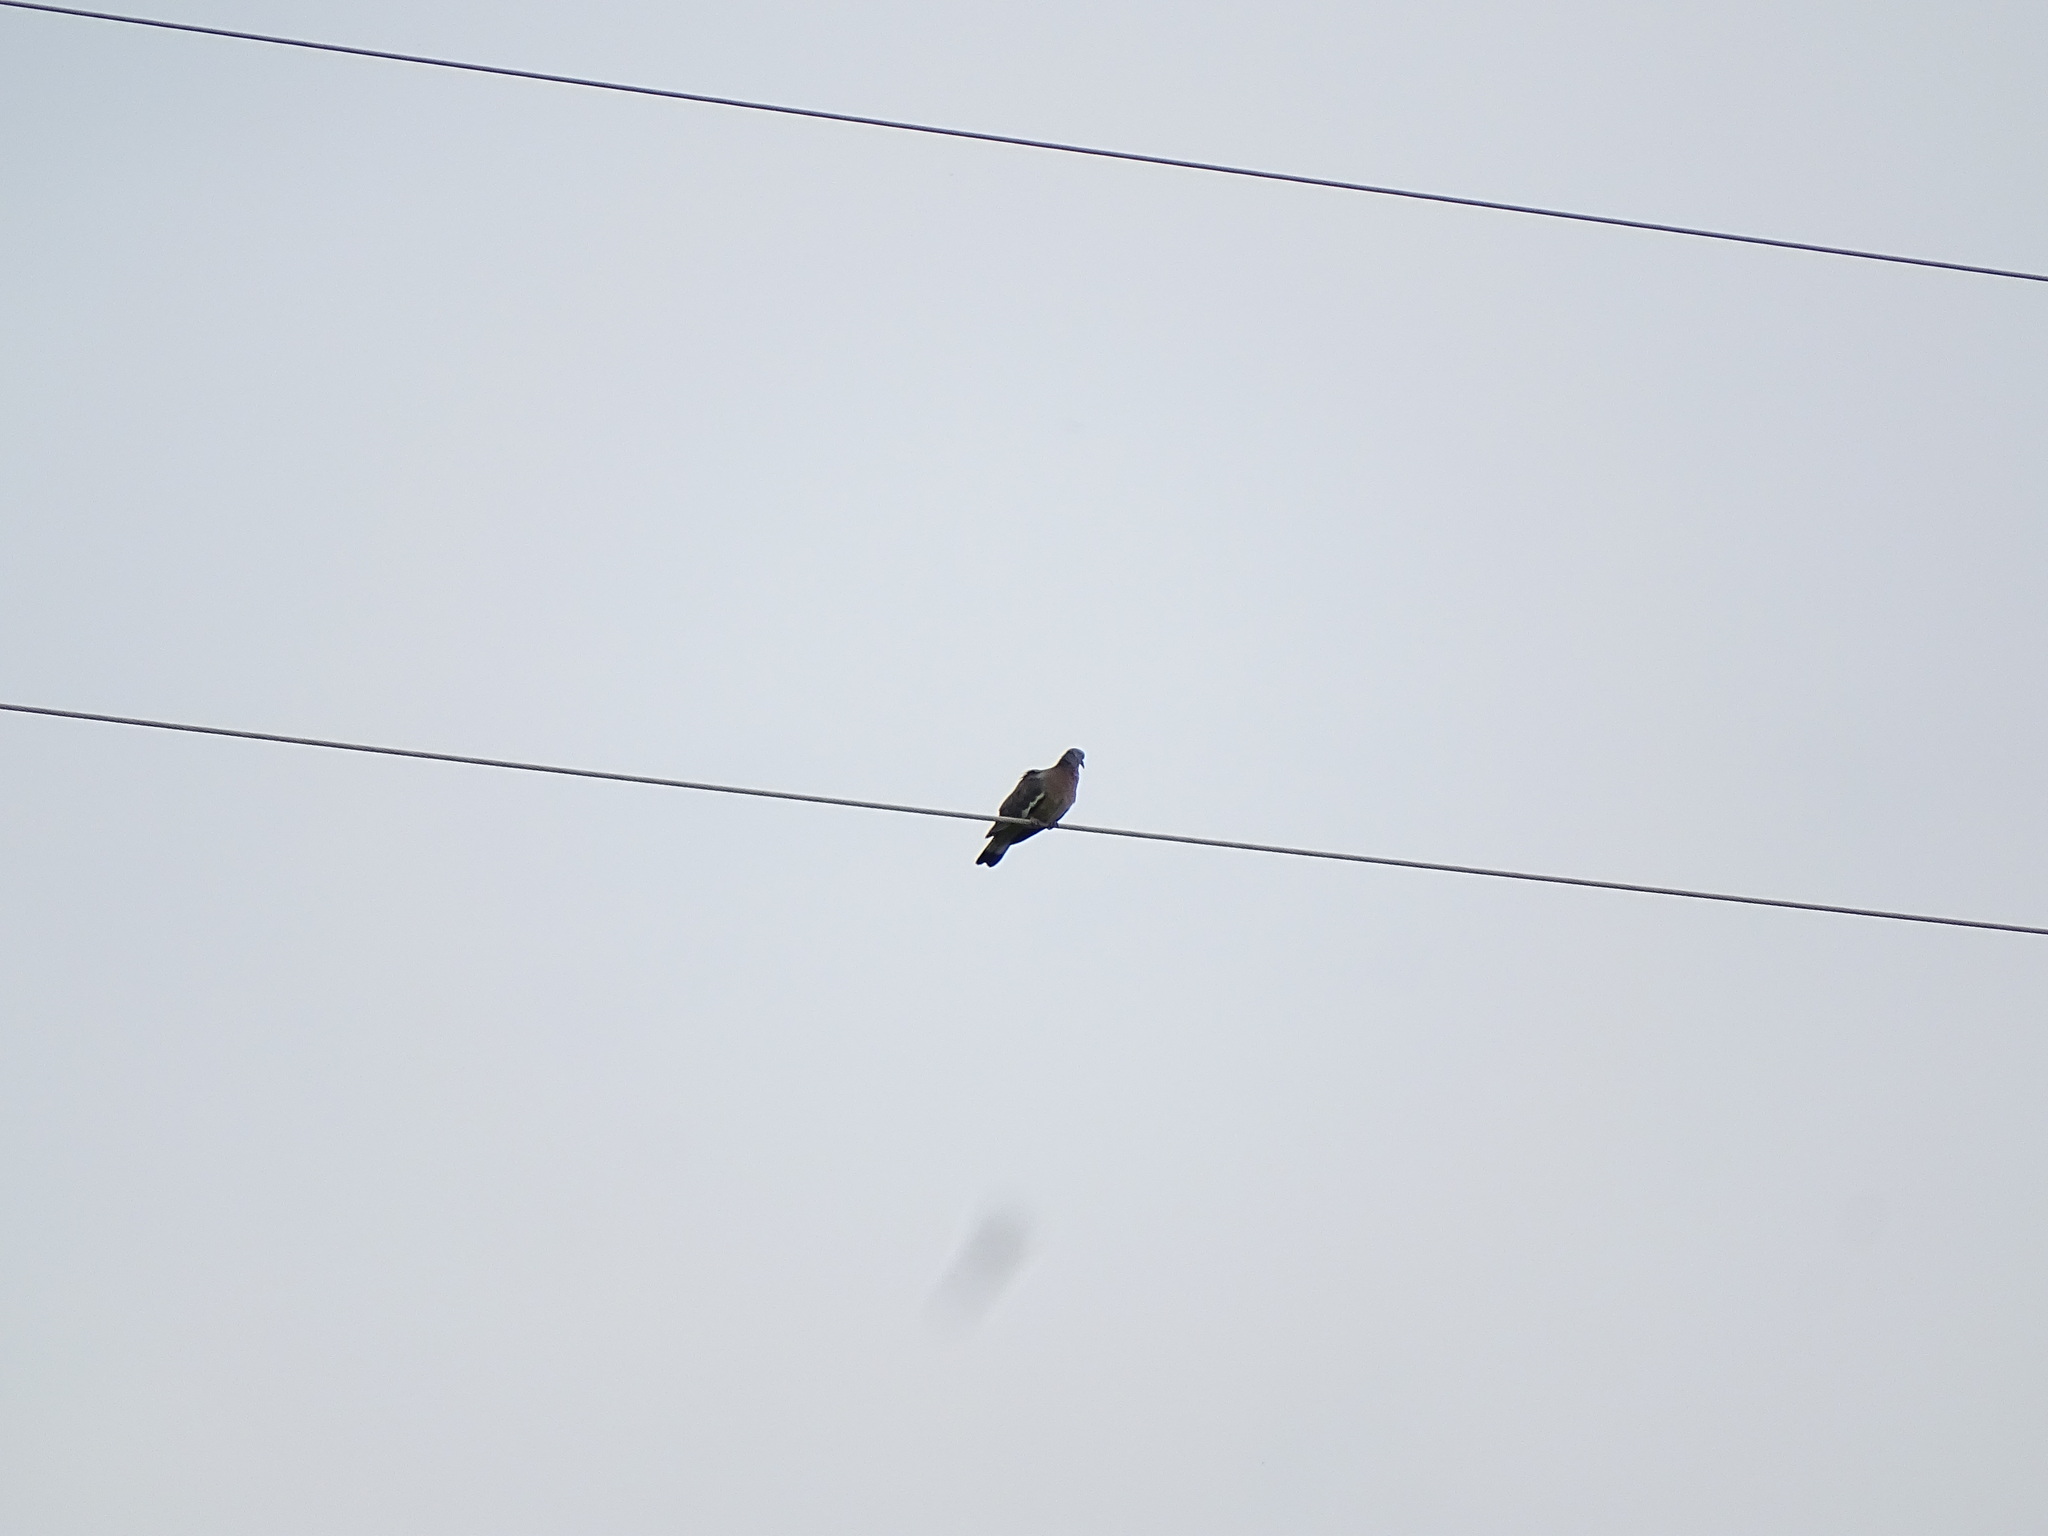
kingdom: Animalia
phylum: Chordata
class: Aves
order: Columbiformes
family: Columbidae
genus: Columba
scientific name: Columba palumbus
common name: Common wood pigeon
